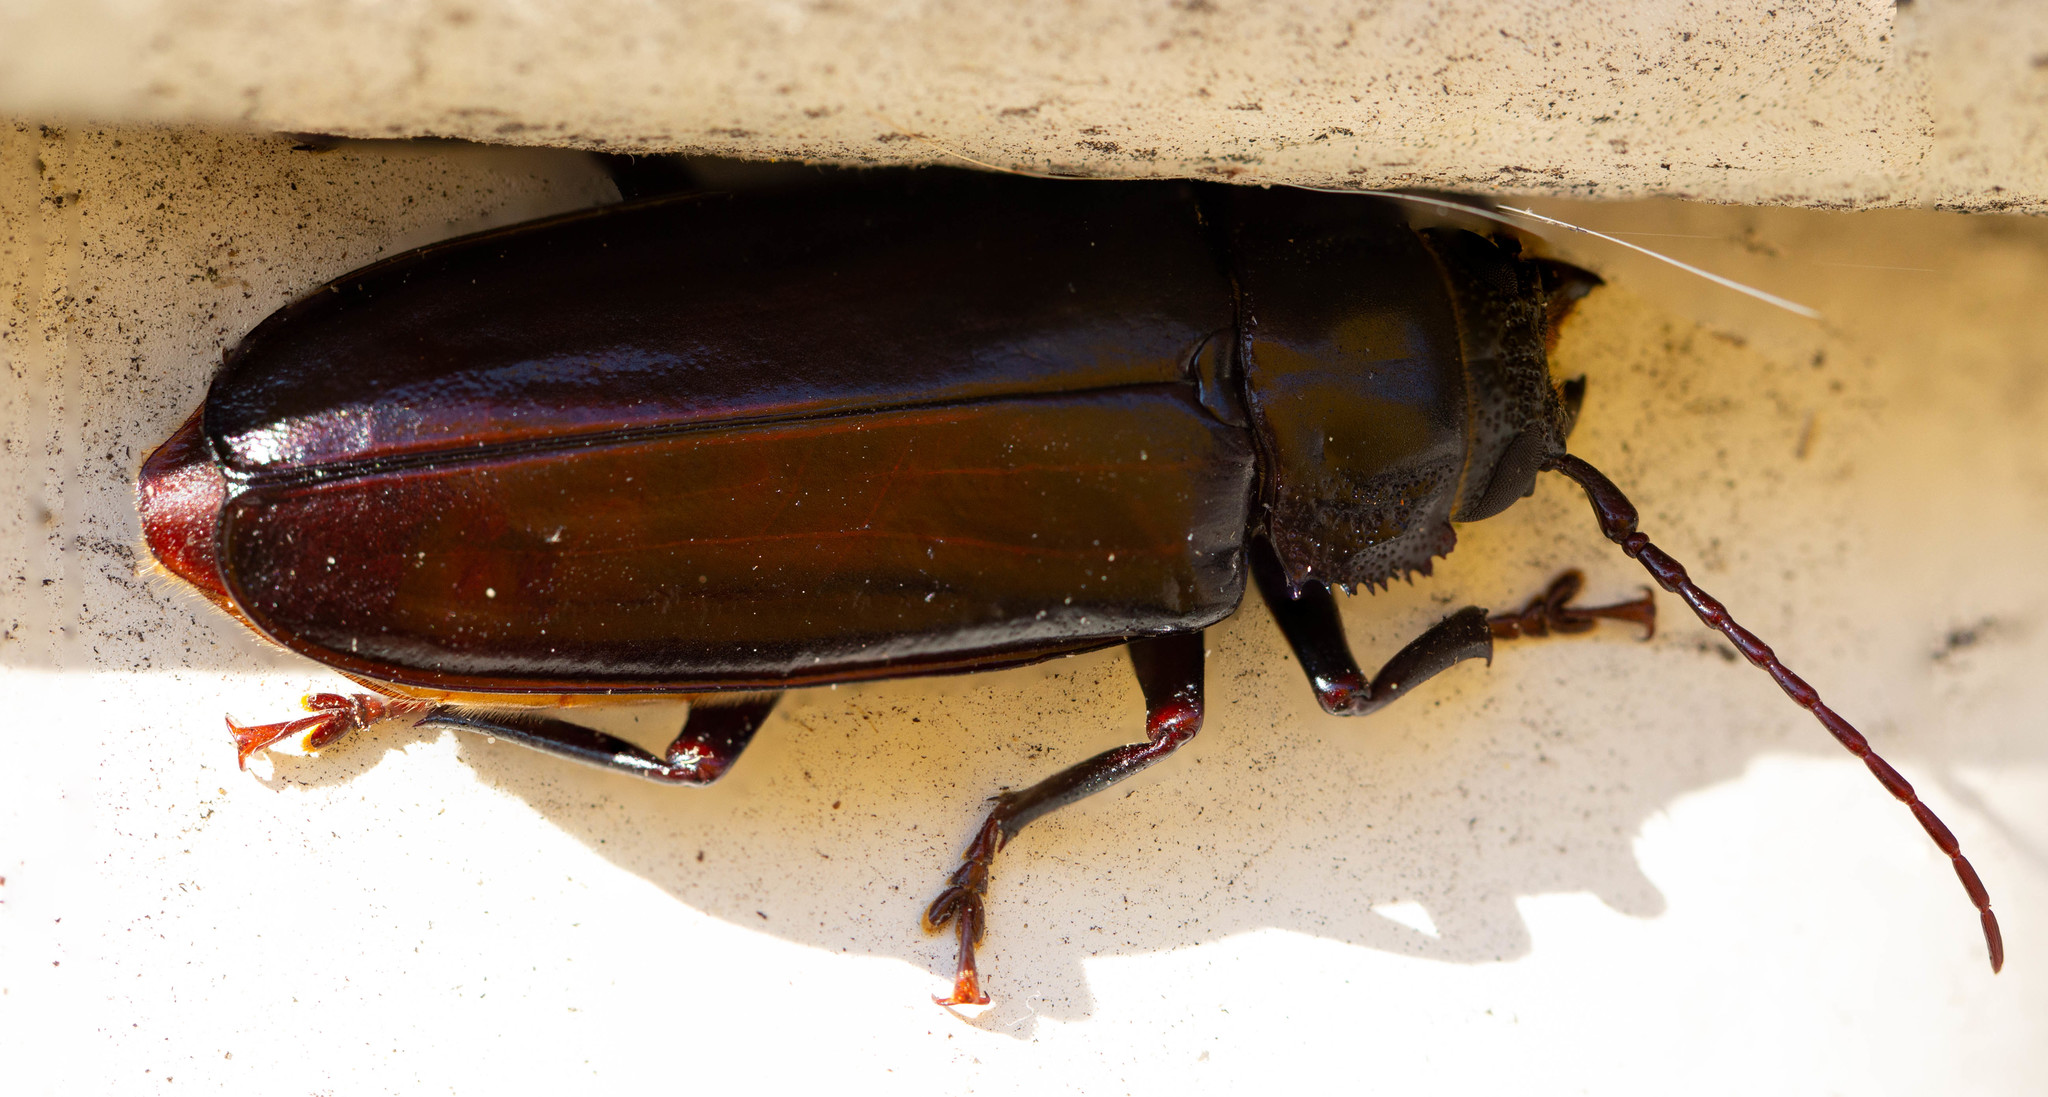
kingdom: Animalia
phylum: Arthropoda
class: Insecta
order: Coleoptera
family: Cerambycidae
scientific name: Cerambycidae
